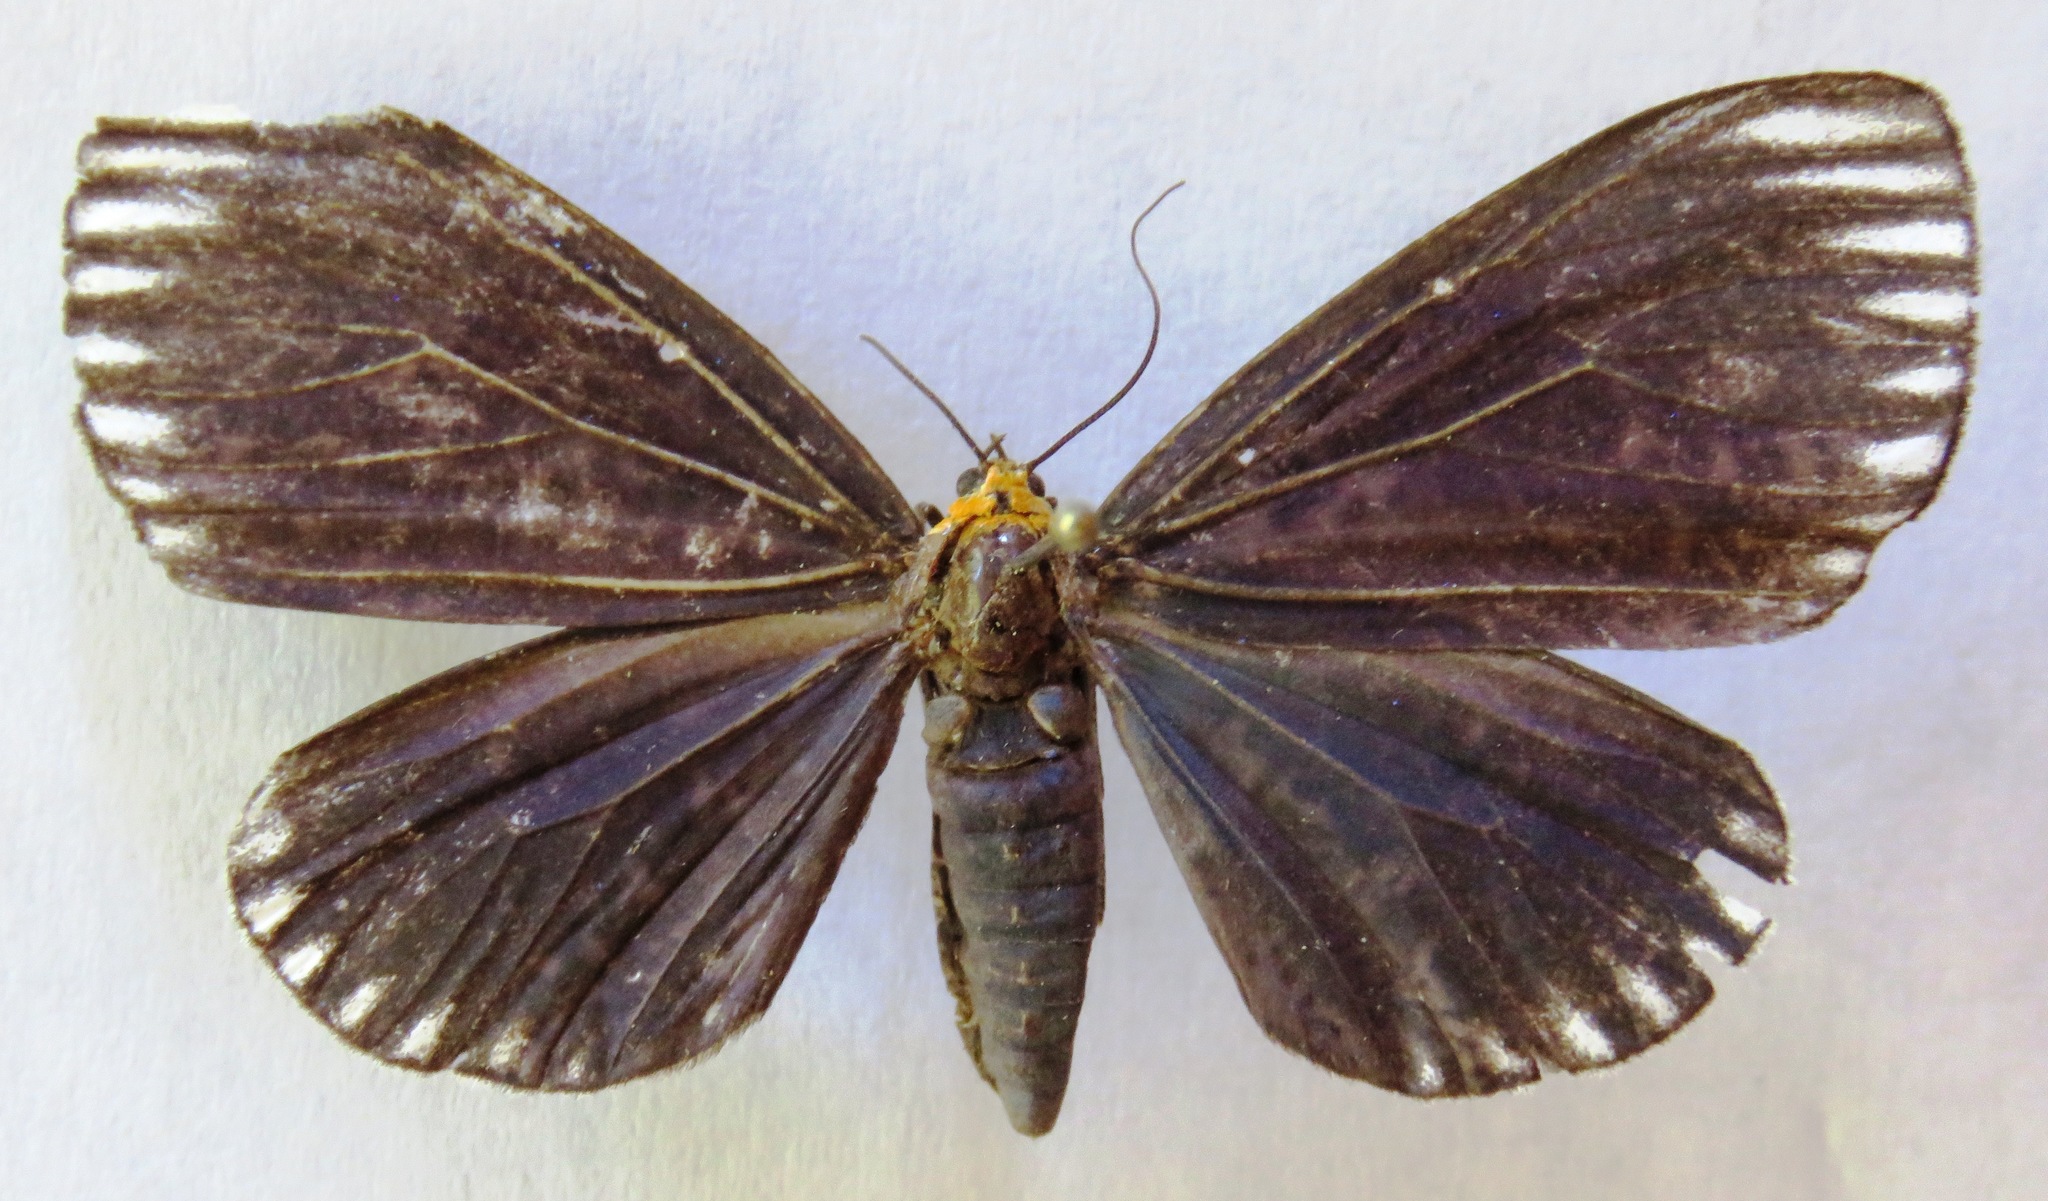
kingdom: Animalia
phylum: Arthropoda
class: Insecta
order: Lepidoptera
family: Erebidae
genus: Calodesma
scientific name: Calodesma maculifrons
